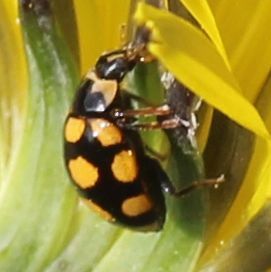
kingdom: Animalia
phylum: Arthropoda
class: Insecta
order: Coleoptera
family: Coccinellidae
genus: Coccinula
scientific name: Coccinula quatuordecimpustulata
